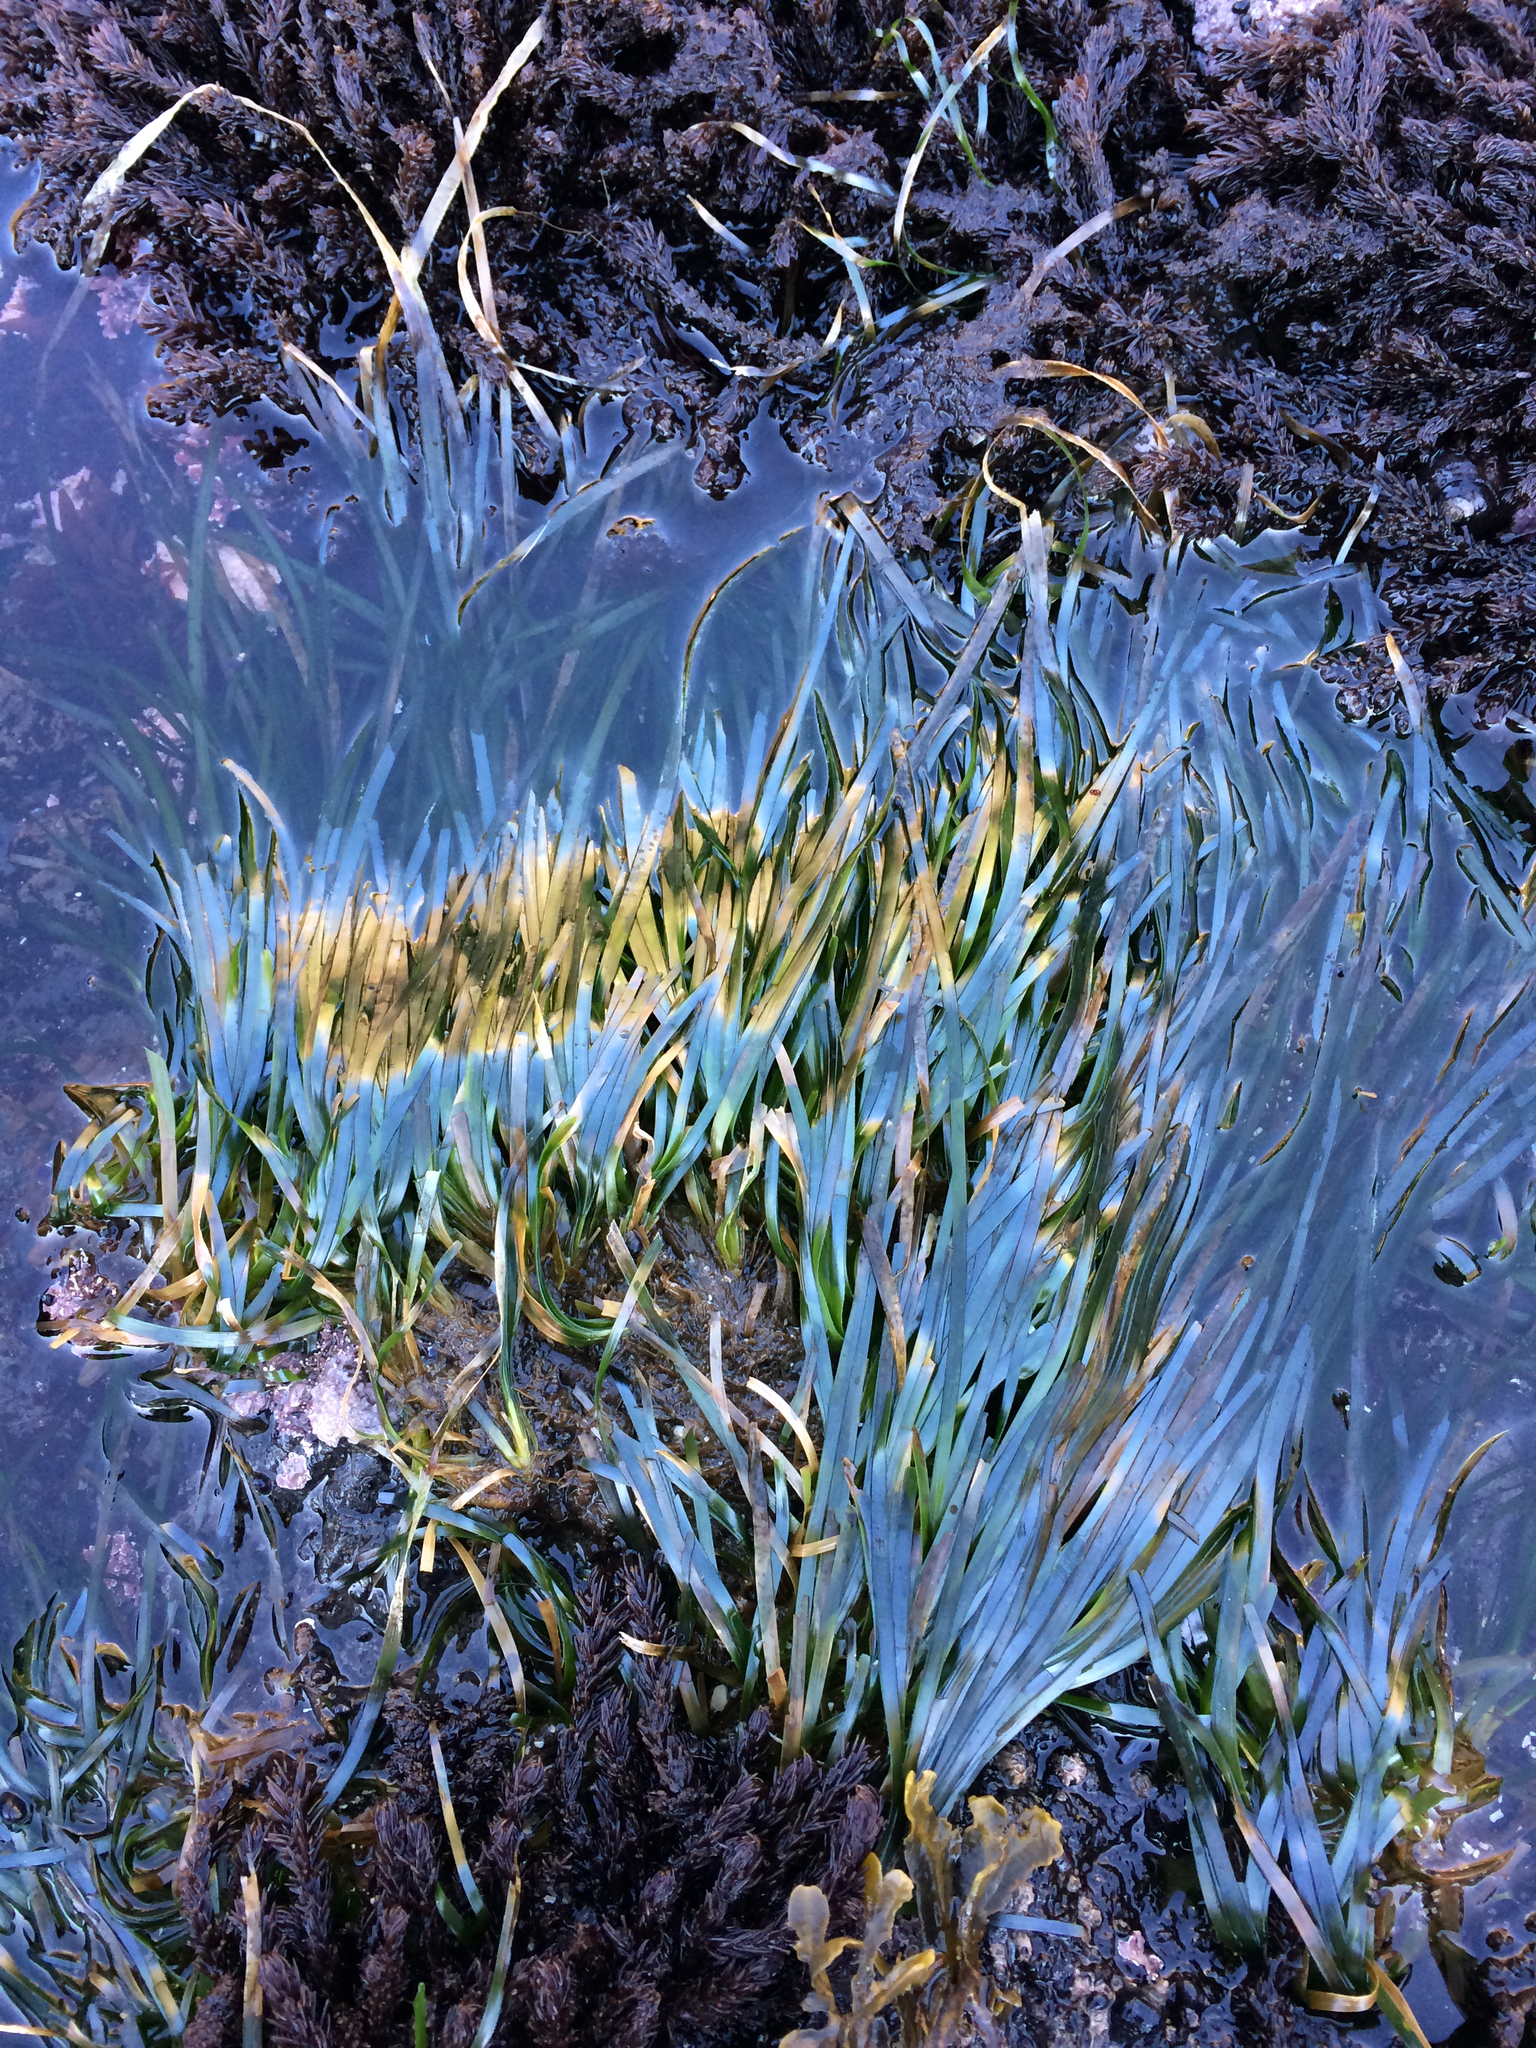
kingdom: Plantae
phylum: Tracheophyta
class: Liliopsida
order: Alismatales
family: Zosteraceae
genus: Phyllospadix
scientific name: Phyllospadix scouleri
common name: Species code: ps
